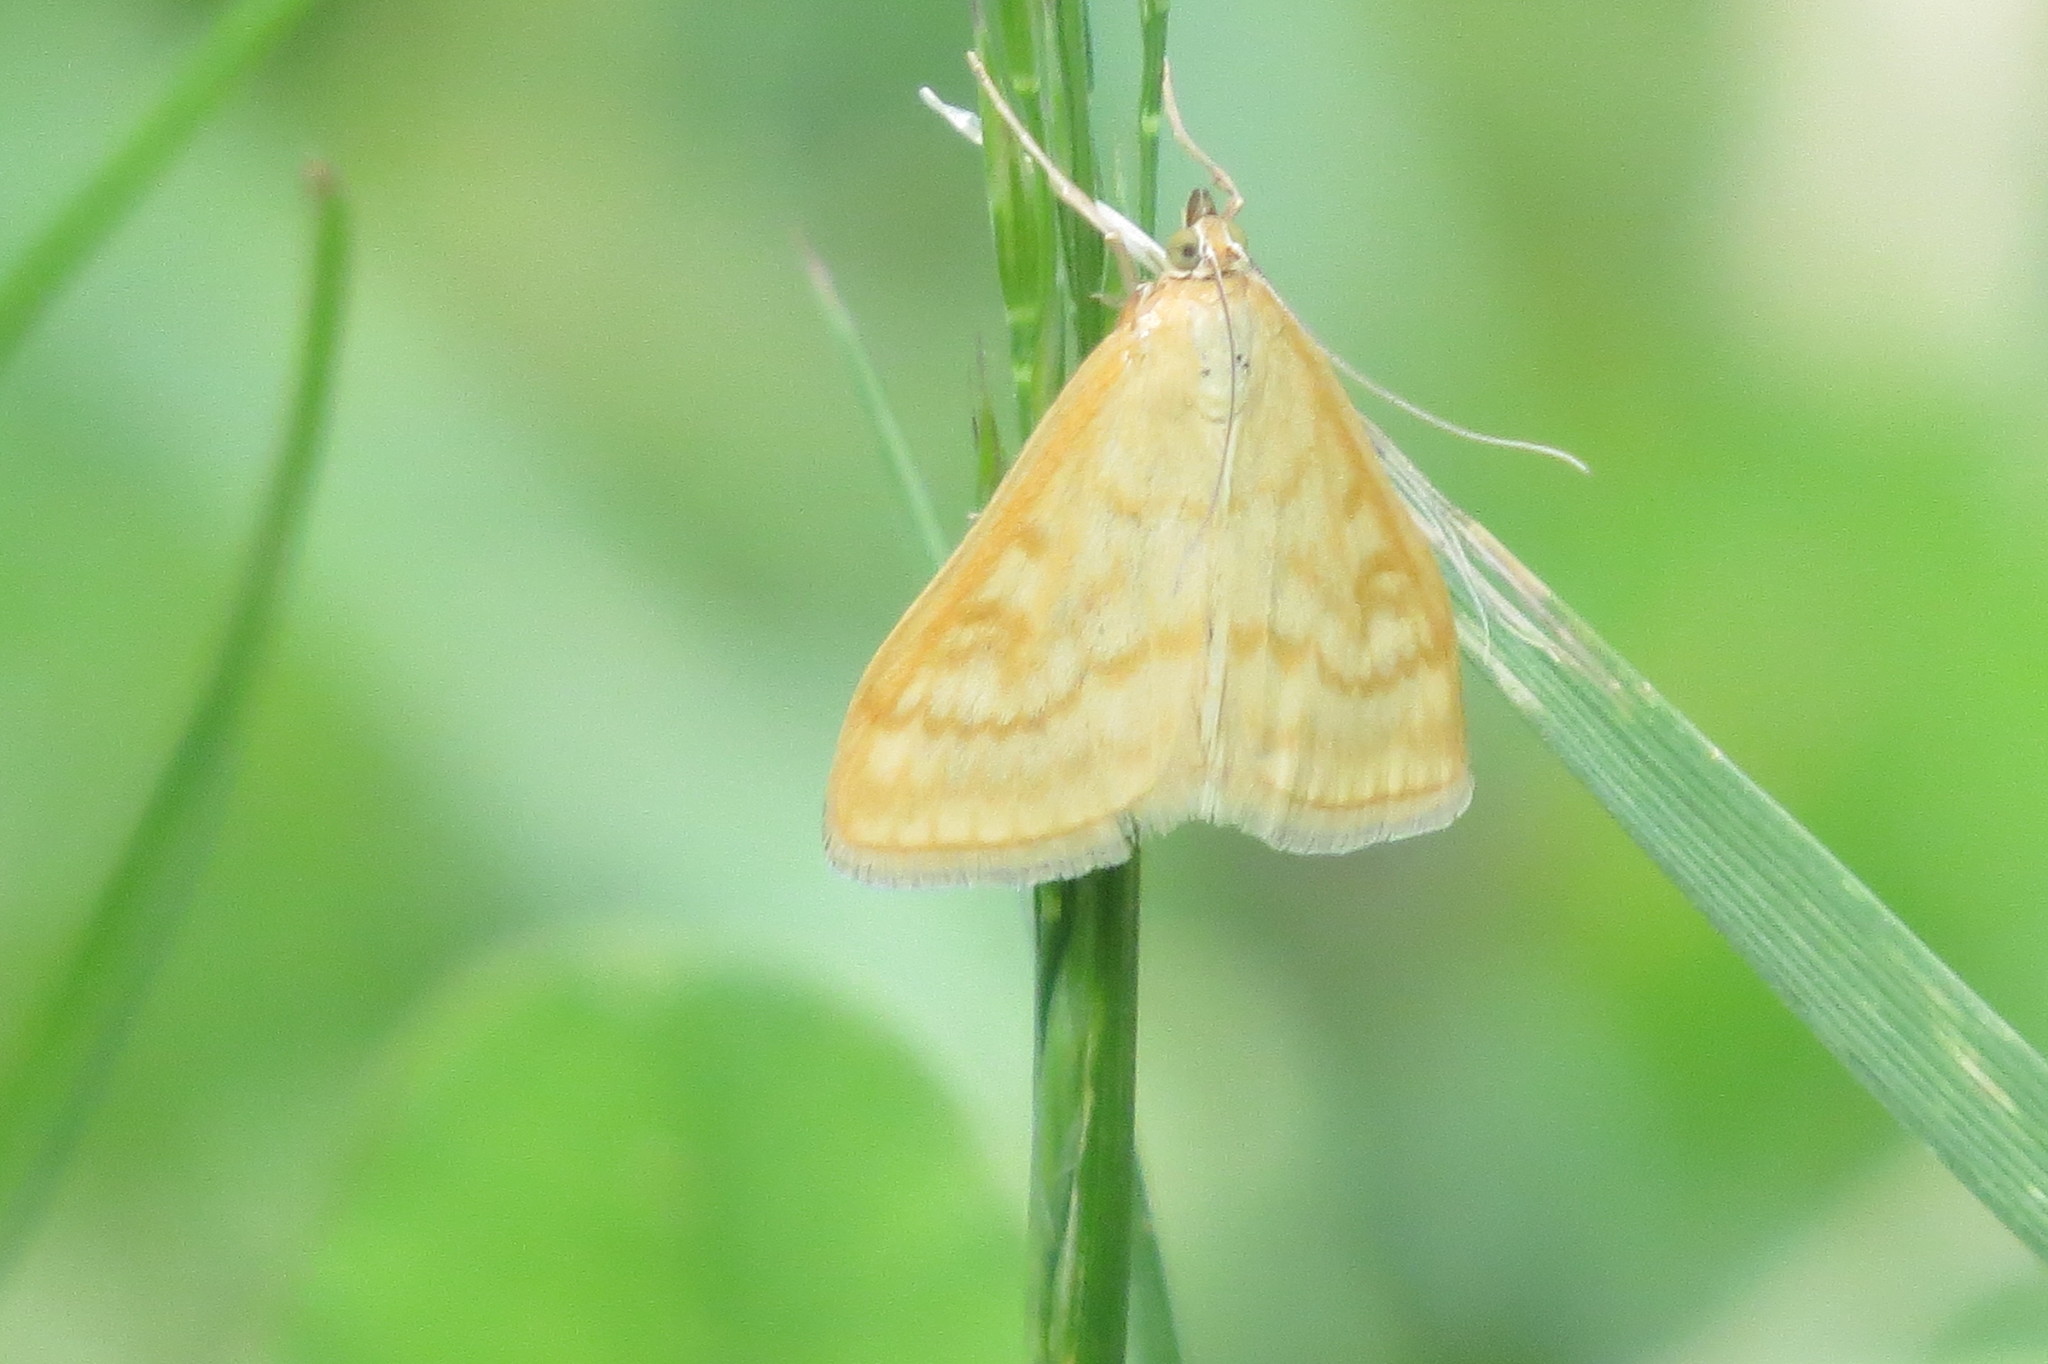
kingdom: Animalia
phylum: Arthropoda
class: Insecta
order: Lepidoptera
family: Crambidae
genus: Sitochroa
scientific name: Sitochroa verticalis
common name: Lesser pearl
